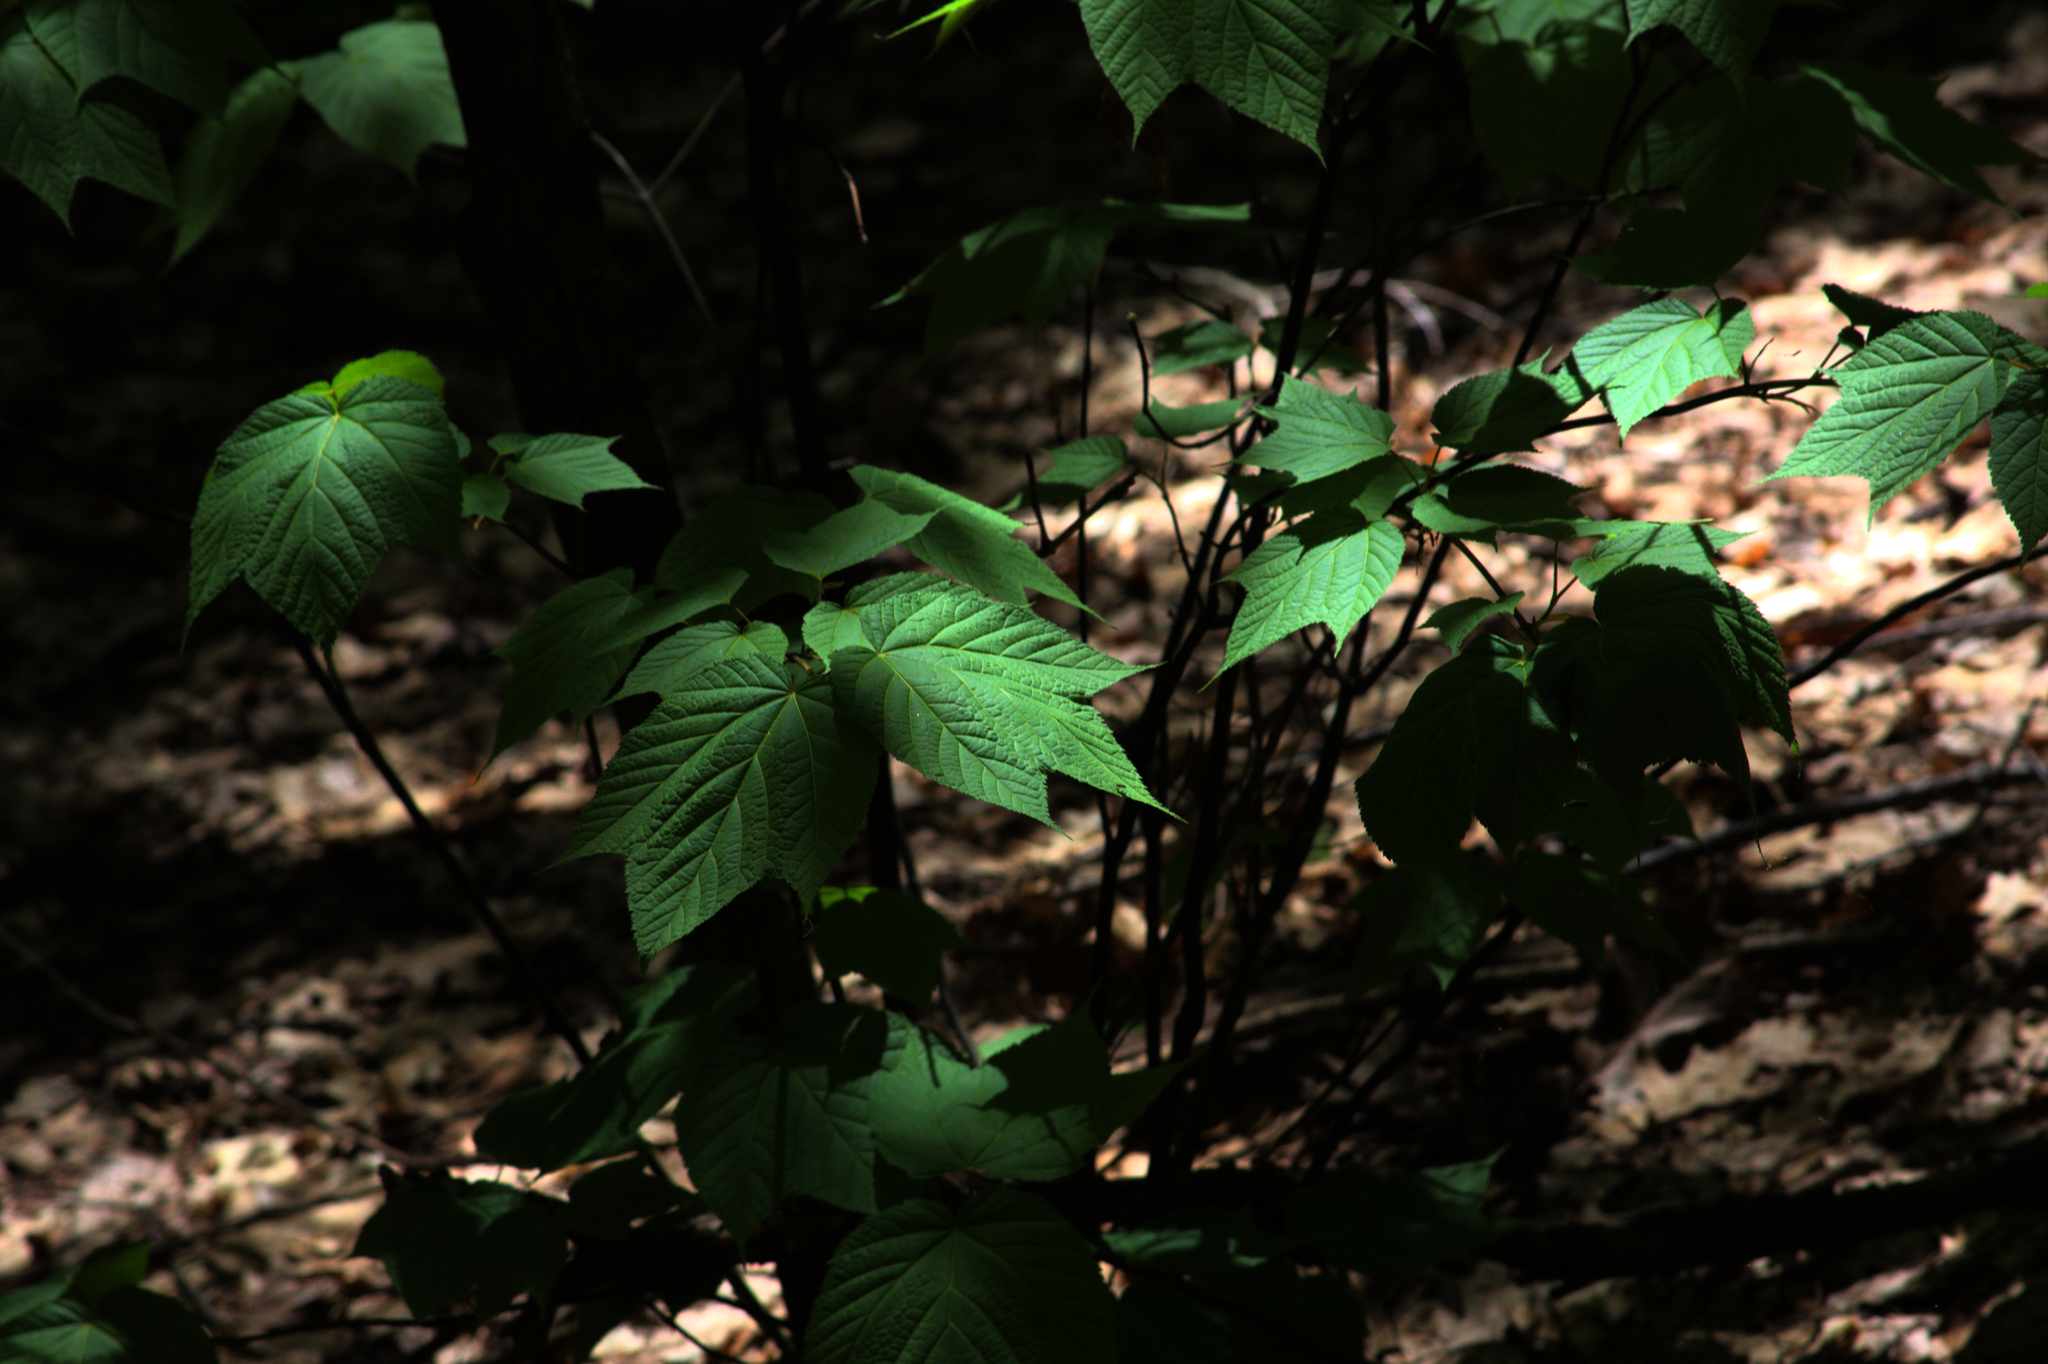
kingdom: Plantae
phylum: Tracheophyta
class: Magnoliopsida
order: Sapindales
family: Sapindaceae
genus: Acer
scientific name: Acer pensylvanicum
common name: Moosewood
